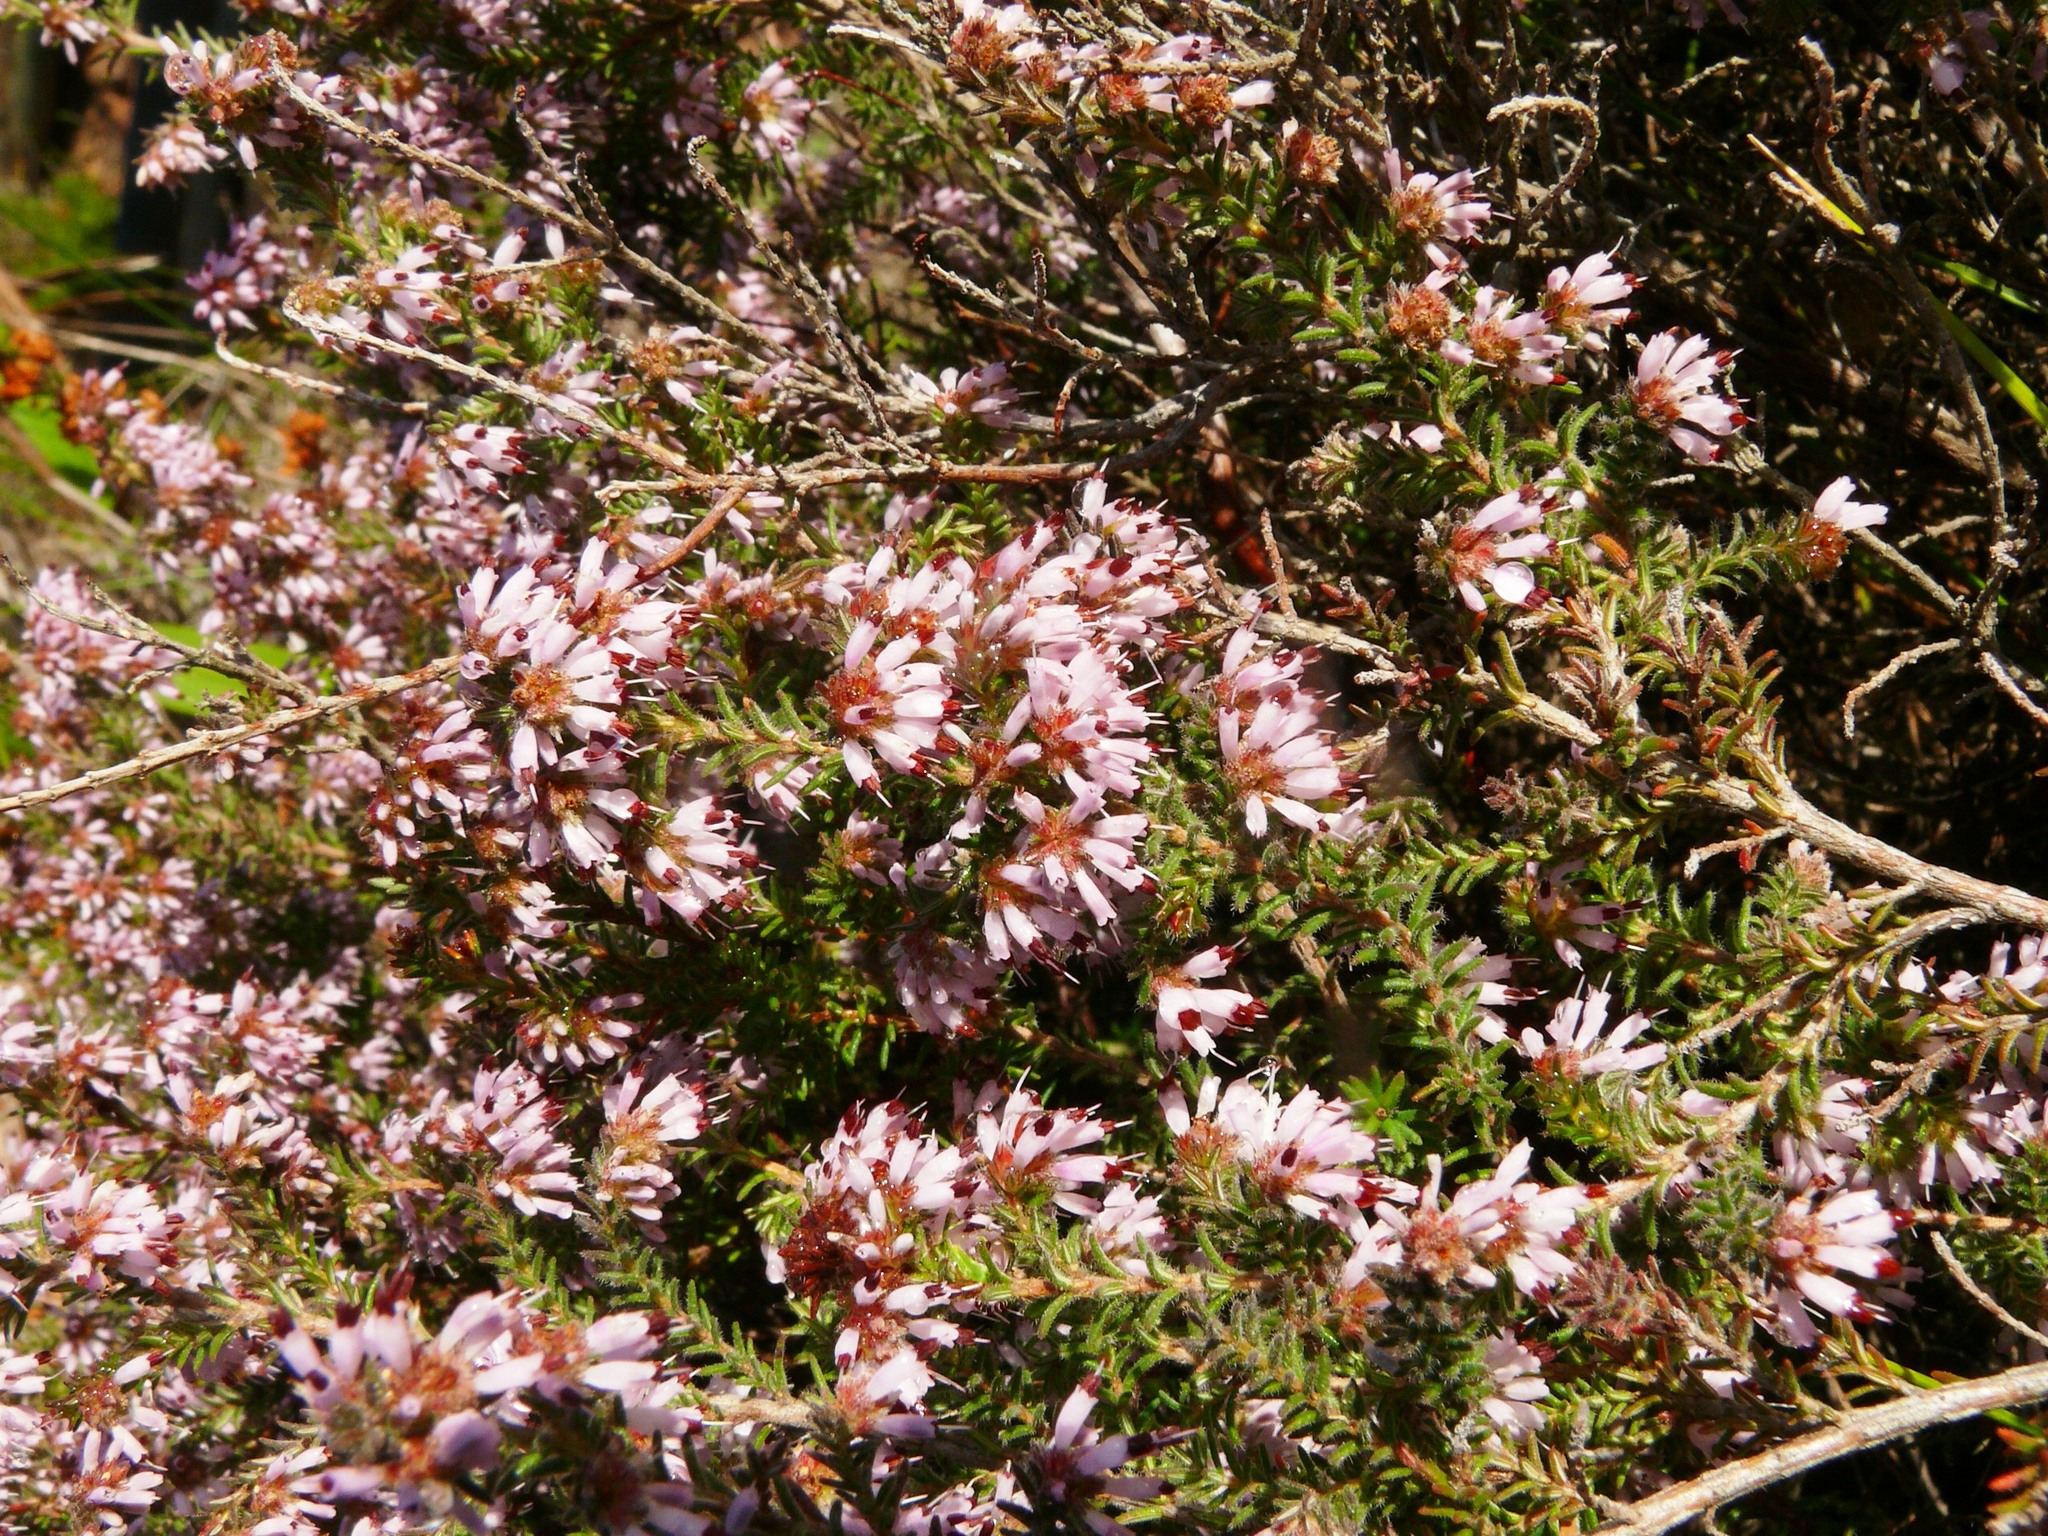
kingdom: Plantae
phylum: Tracheophyta
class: Magnoliopsida
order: Ericales
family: Ericaceae
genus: Erica
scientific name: Erica ericoides
